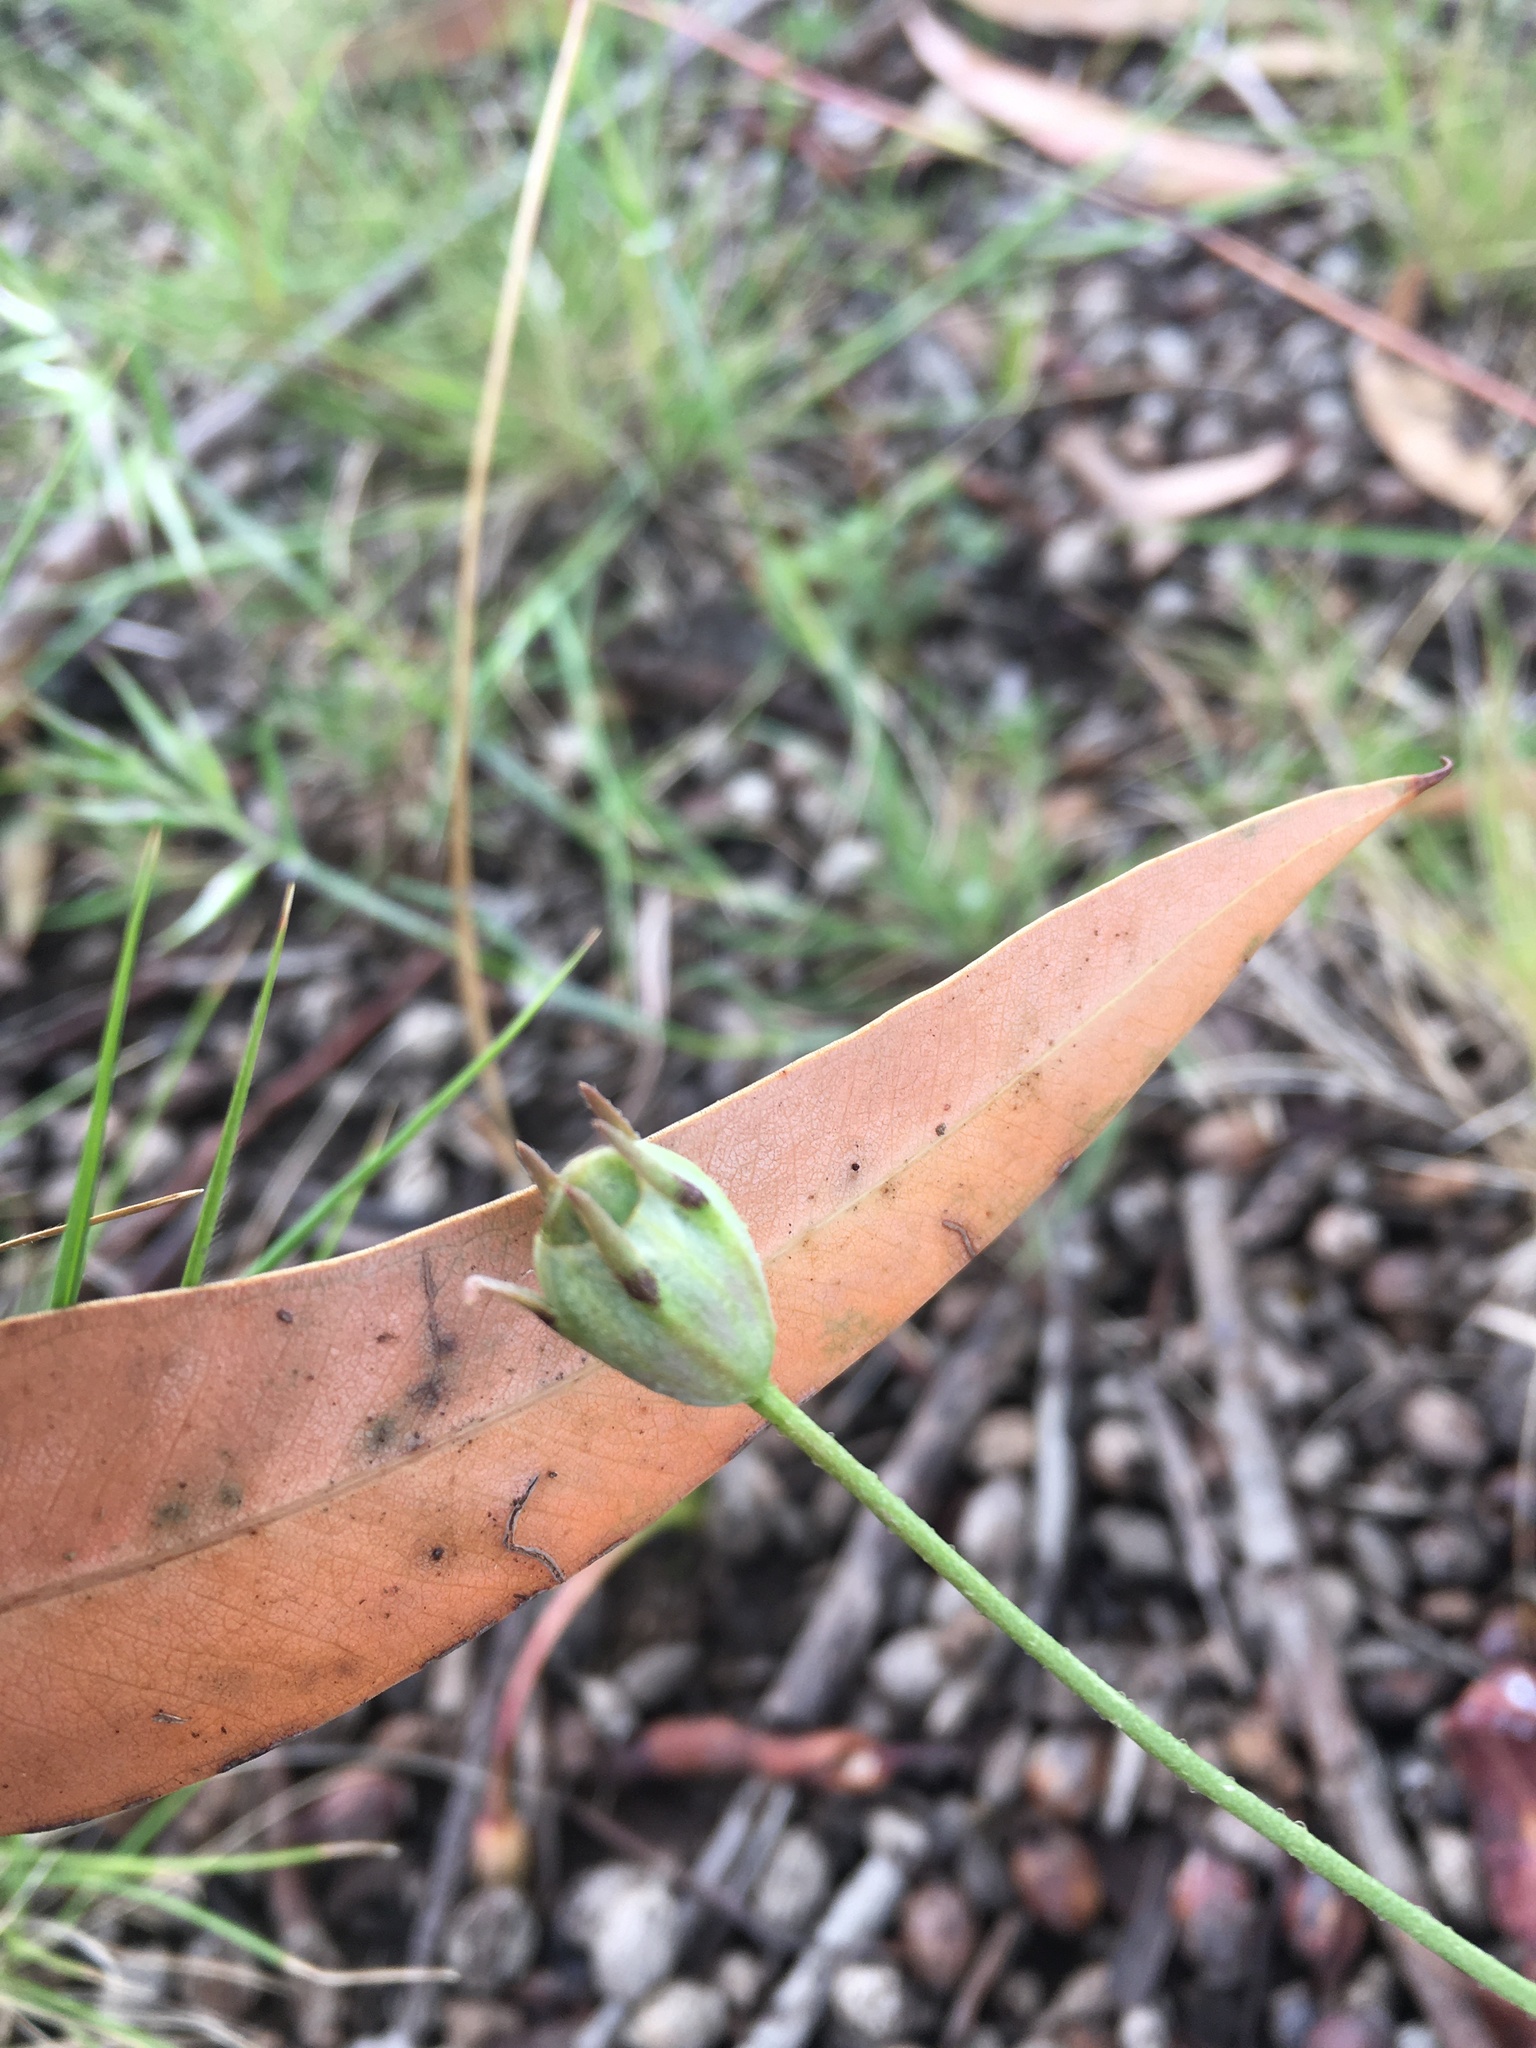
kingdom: Plantae
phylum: Tracheophyta
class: Magnoliopsida
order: Asterales
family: Goodeniaceae
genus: Goodenia
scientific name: Goodenia pinnatifida
